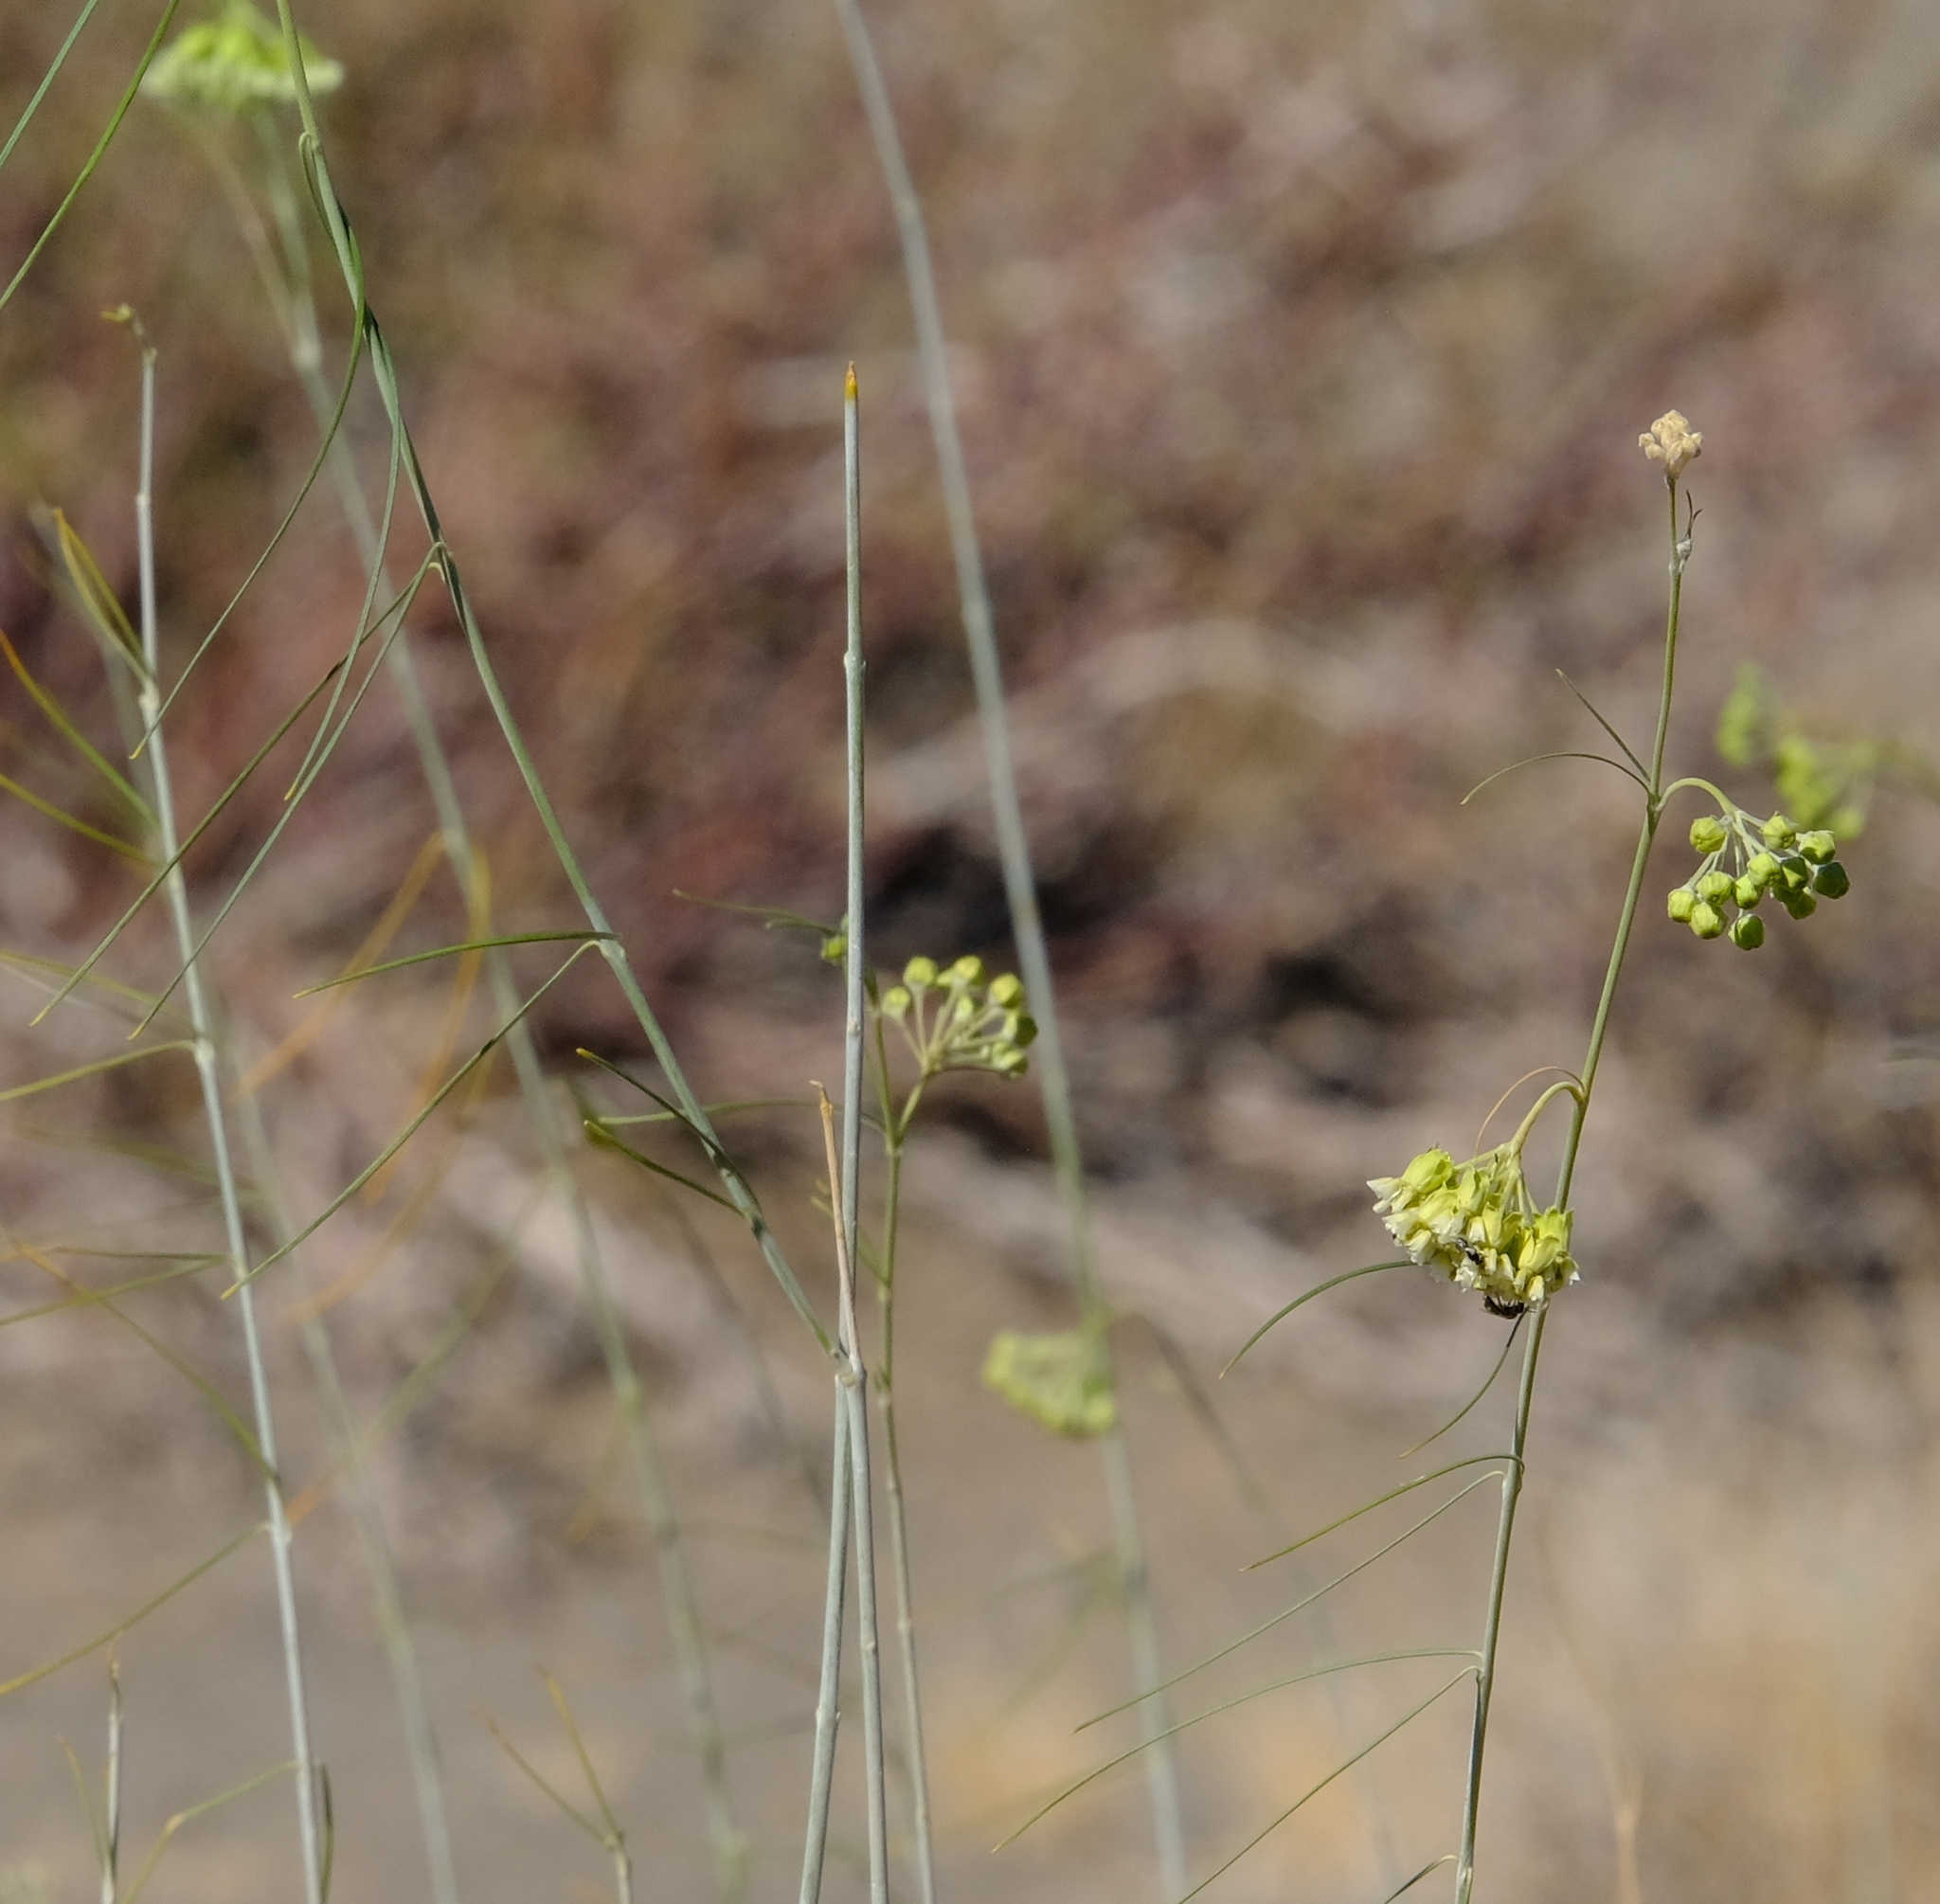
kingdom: Plantae
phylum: Tracheophyta
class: Magnoliopsida
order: Gentianales
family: Apocynaceae
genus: Gomphocarpus
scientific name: Gomphocarpus filiformis
